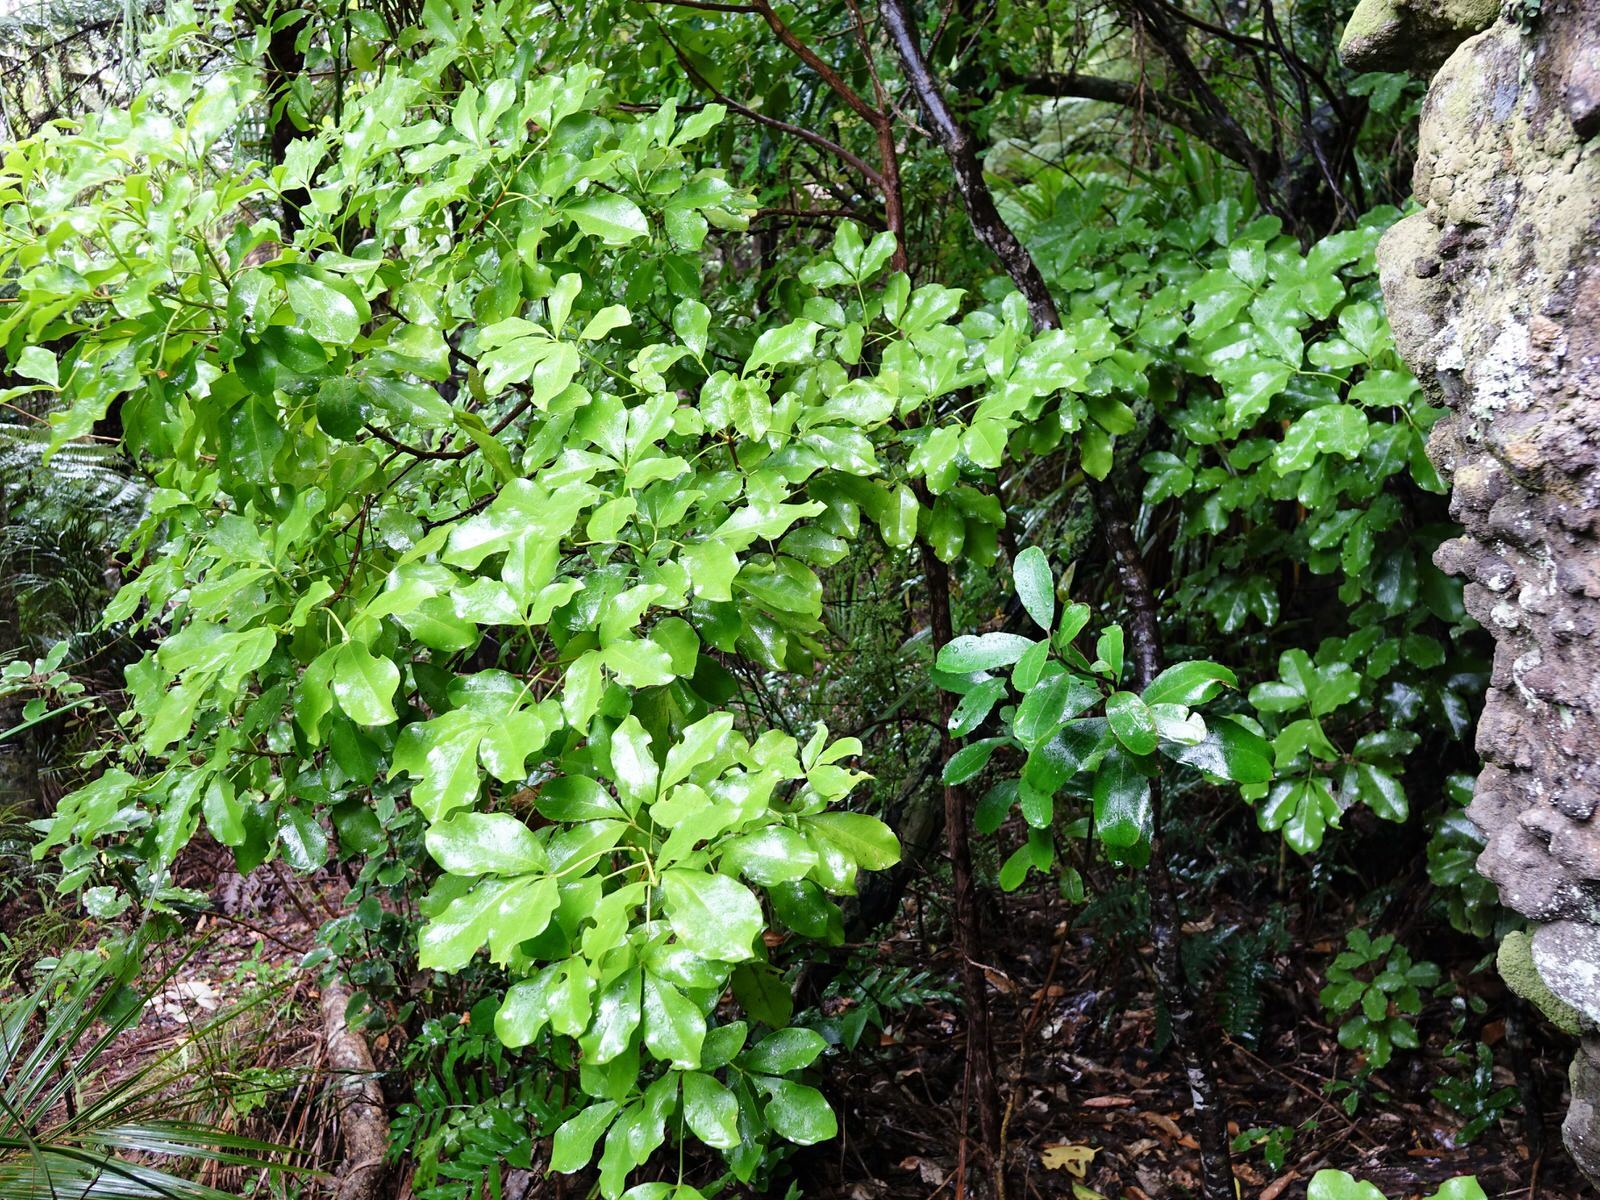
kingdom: Plantae
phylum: Tracheophyta
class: Magnoliopsida
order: Sapindales
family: Rutaceae
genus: Melicope
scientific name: Melicope ternata
